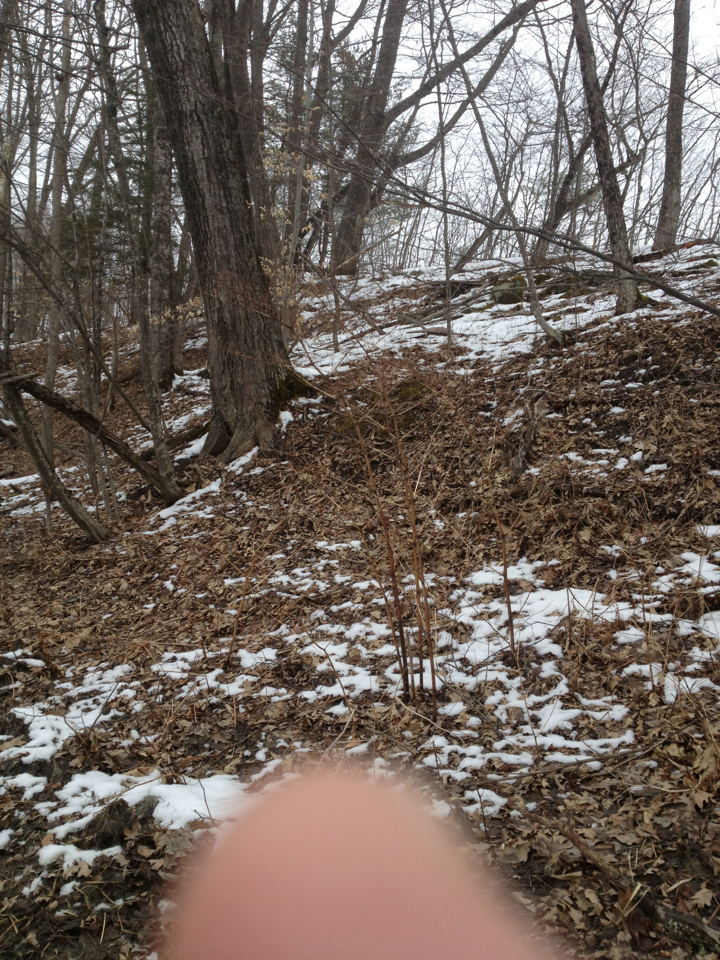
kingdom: Plantae
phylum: Tracheophyta
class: Magnoliopsida
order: Caryophyllales
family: Polygonaceae
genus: Reynoutria
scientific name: Reynoutria japonica
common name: Japanese knotweed
